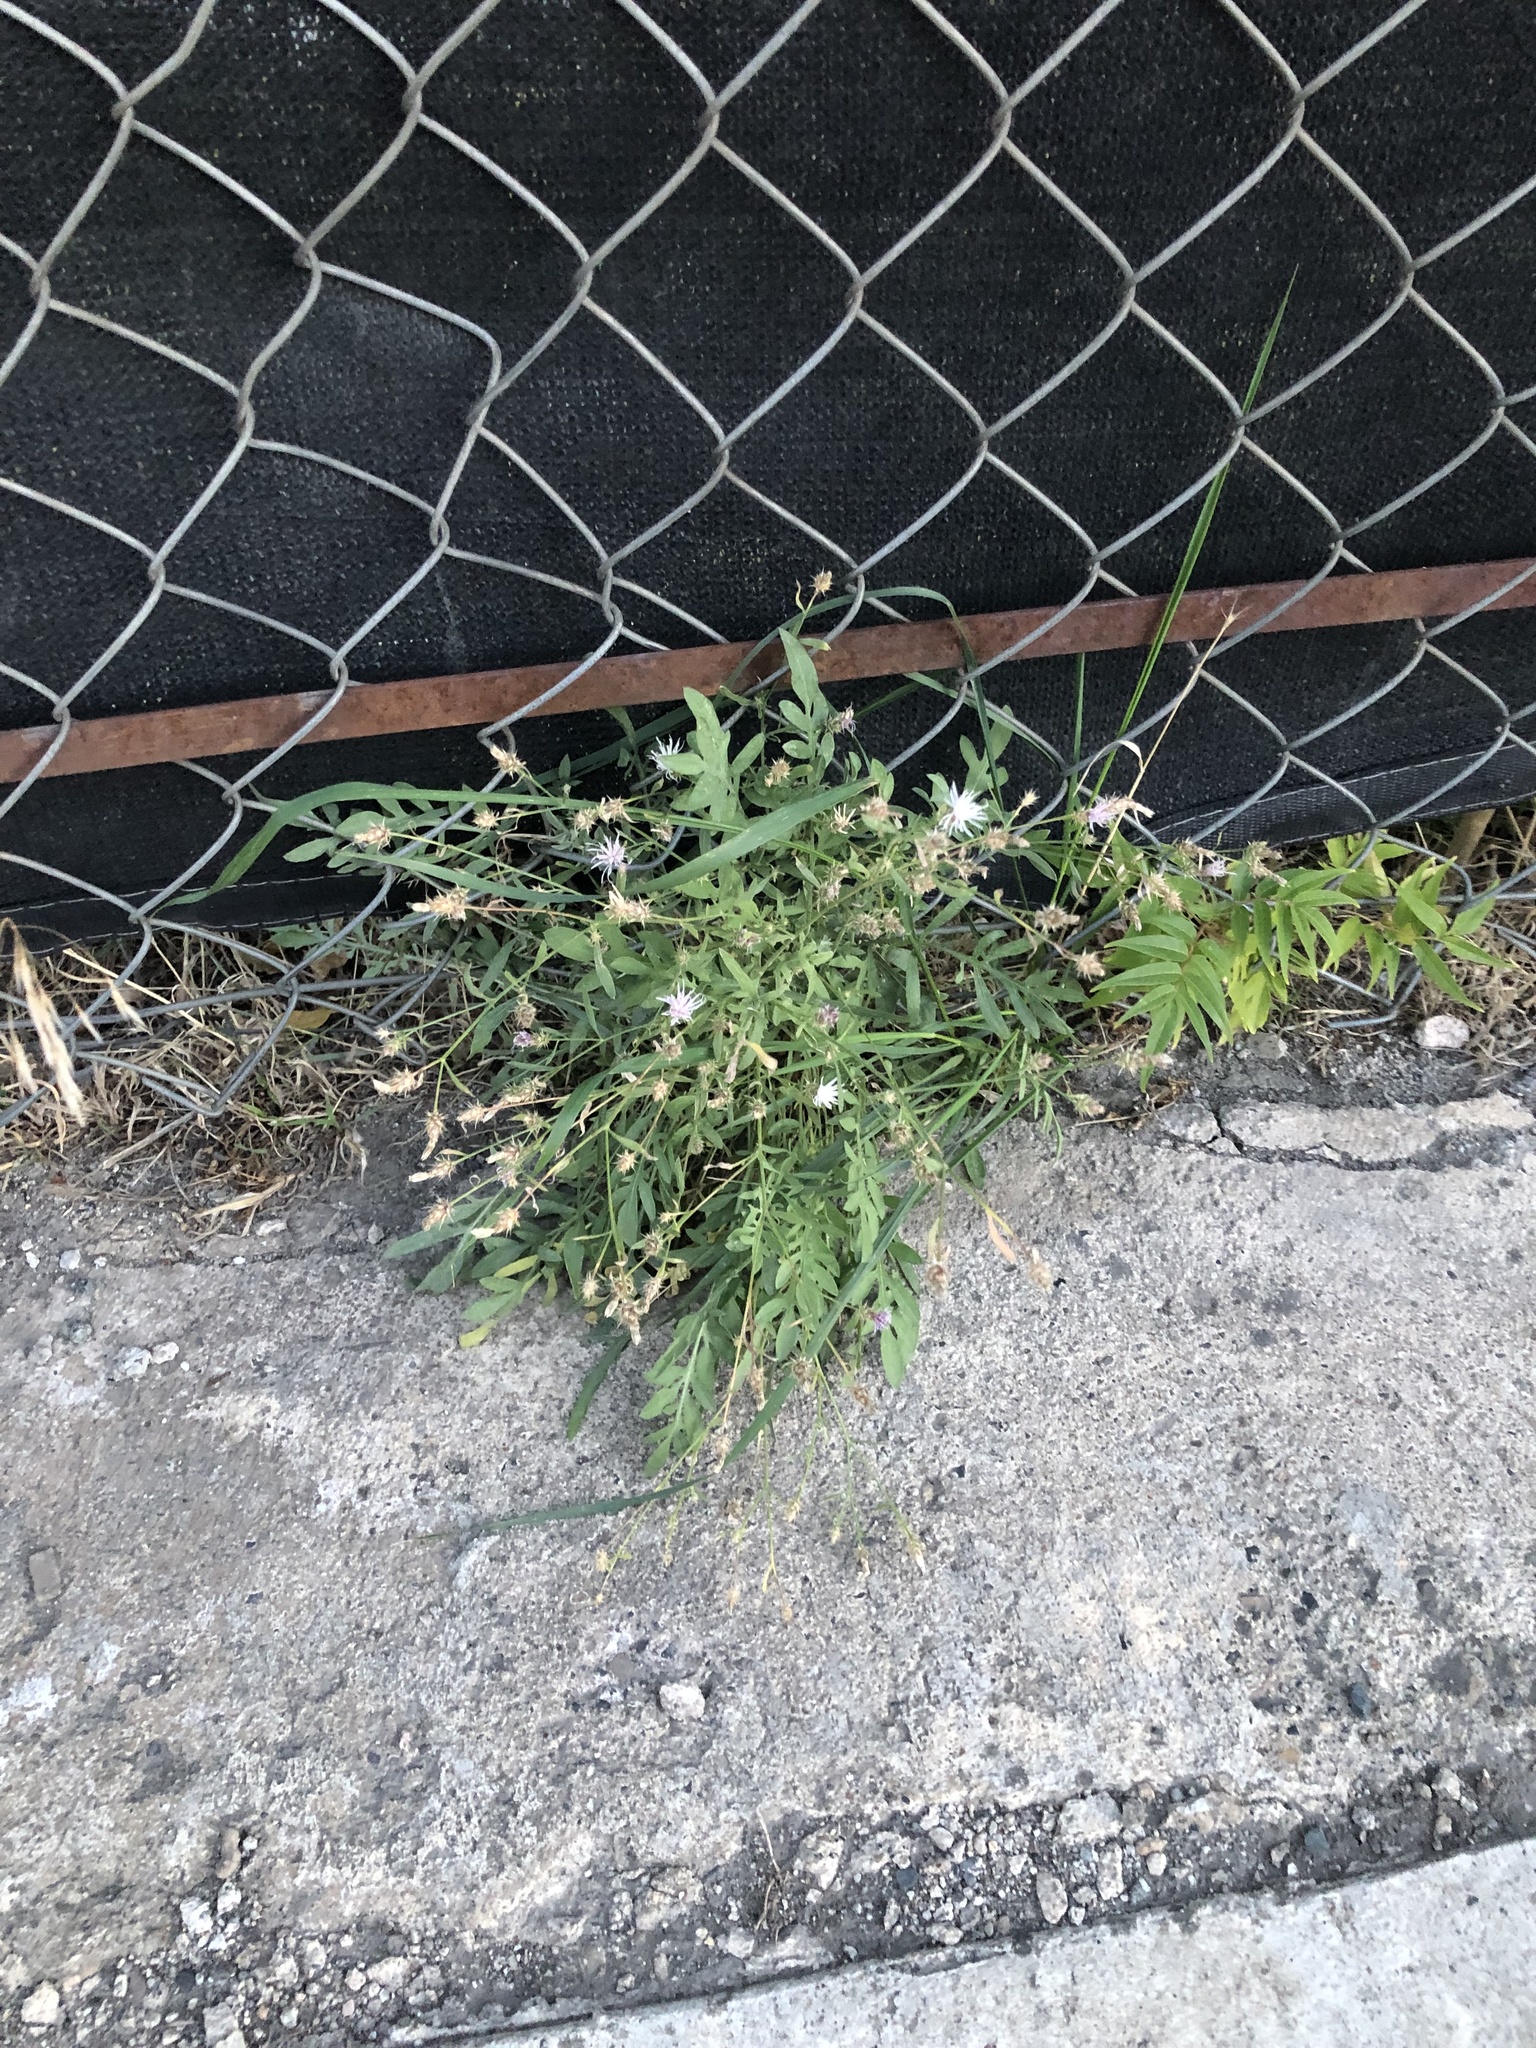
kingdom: Plantae
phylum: Tracheophyta
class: Magnoliopsida
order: Asterales
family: Asteraceae
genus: Centaurea
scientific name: Centaurea diffusa
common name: Diffuse knapweed
